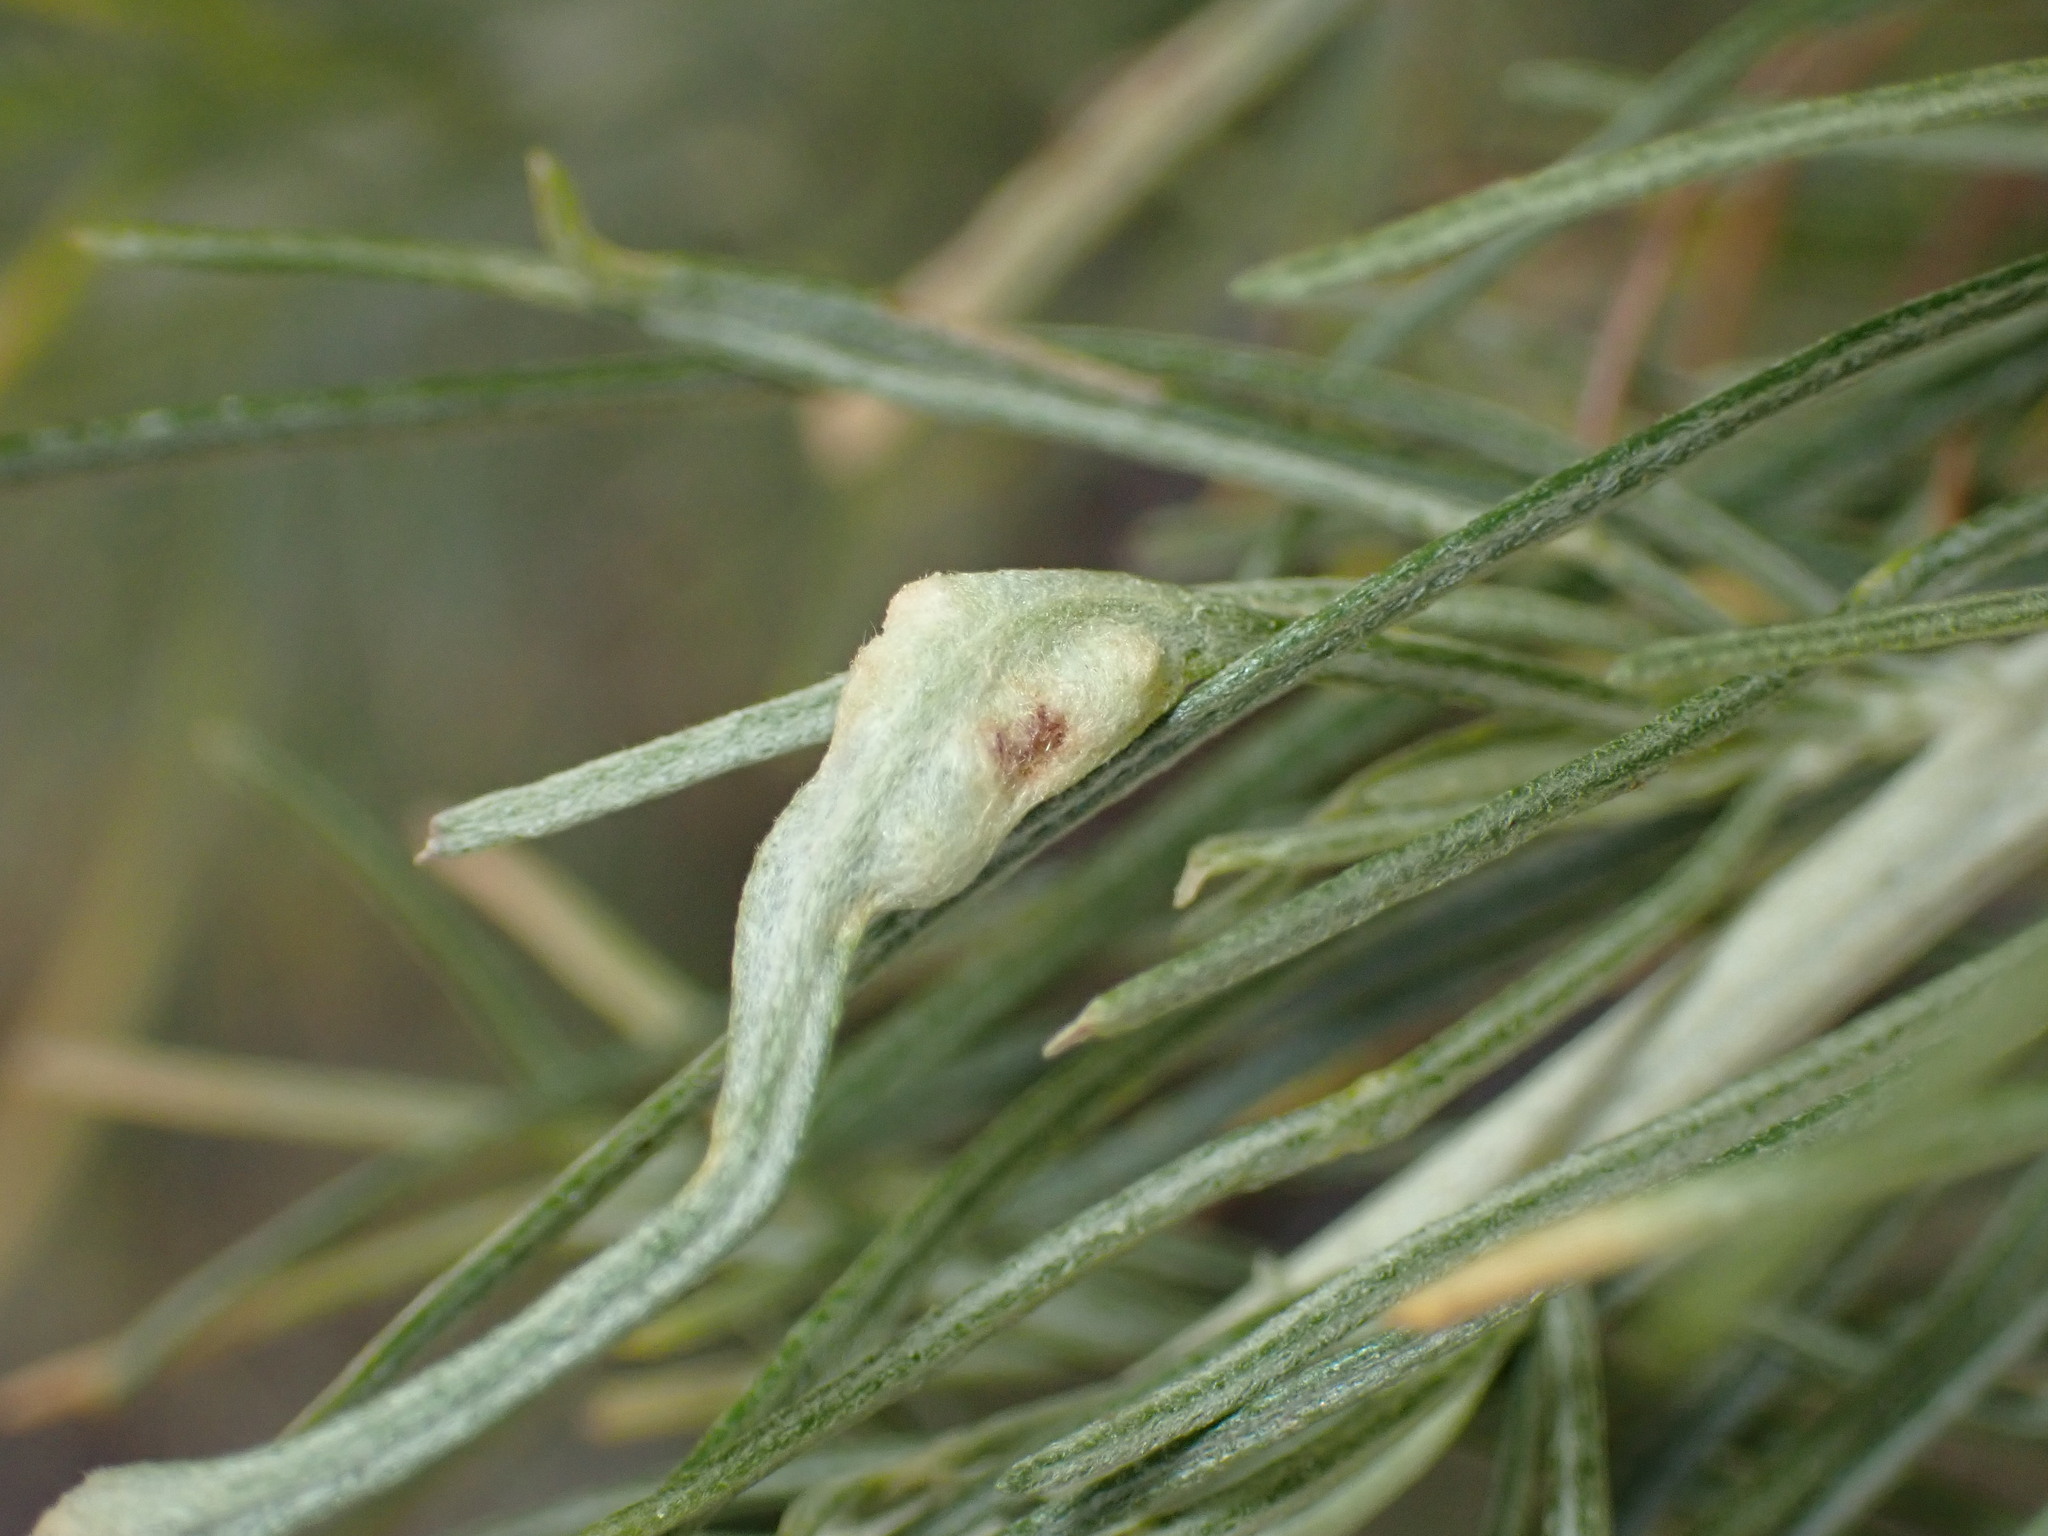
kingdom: Animalia
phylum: Arthropoda
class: Arachnida
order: Trombidiformes
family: Eriophyidae
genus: Aceria
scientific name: Aceria
